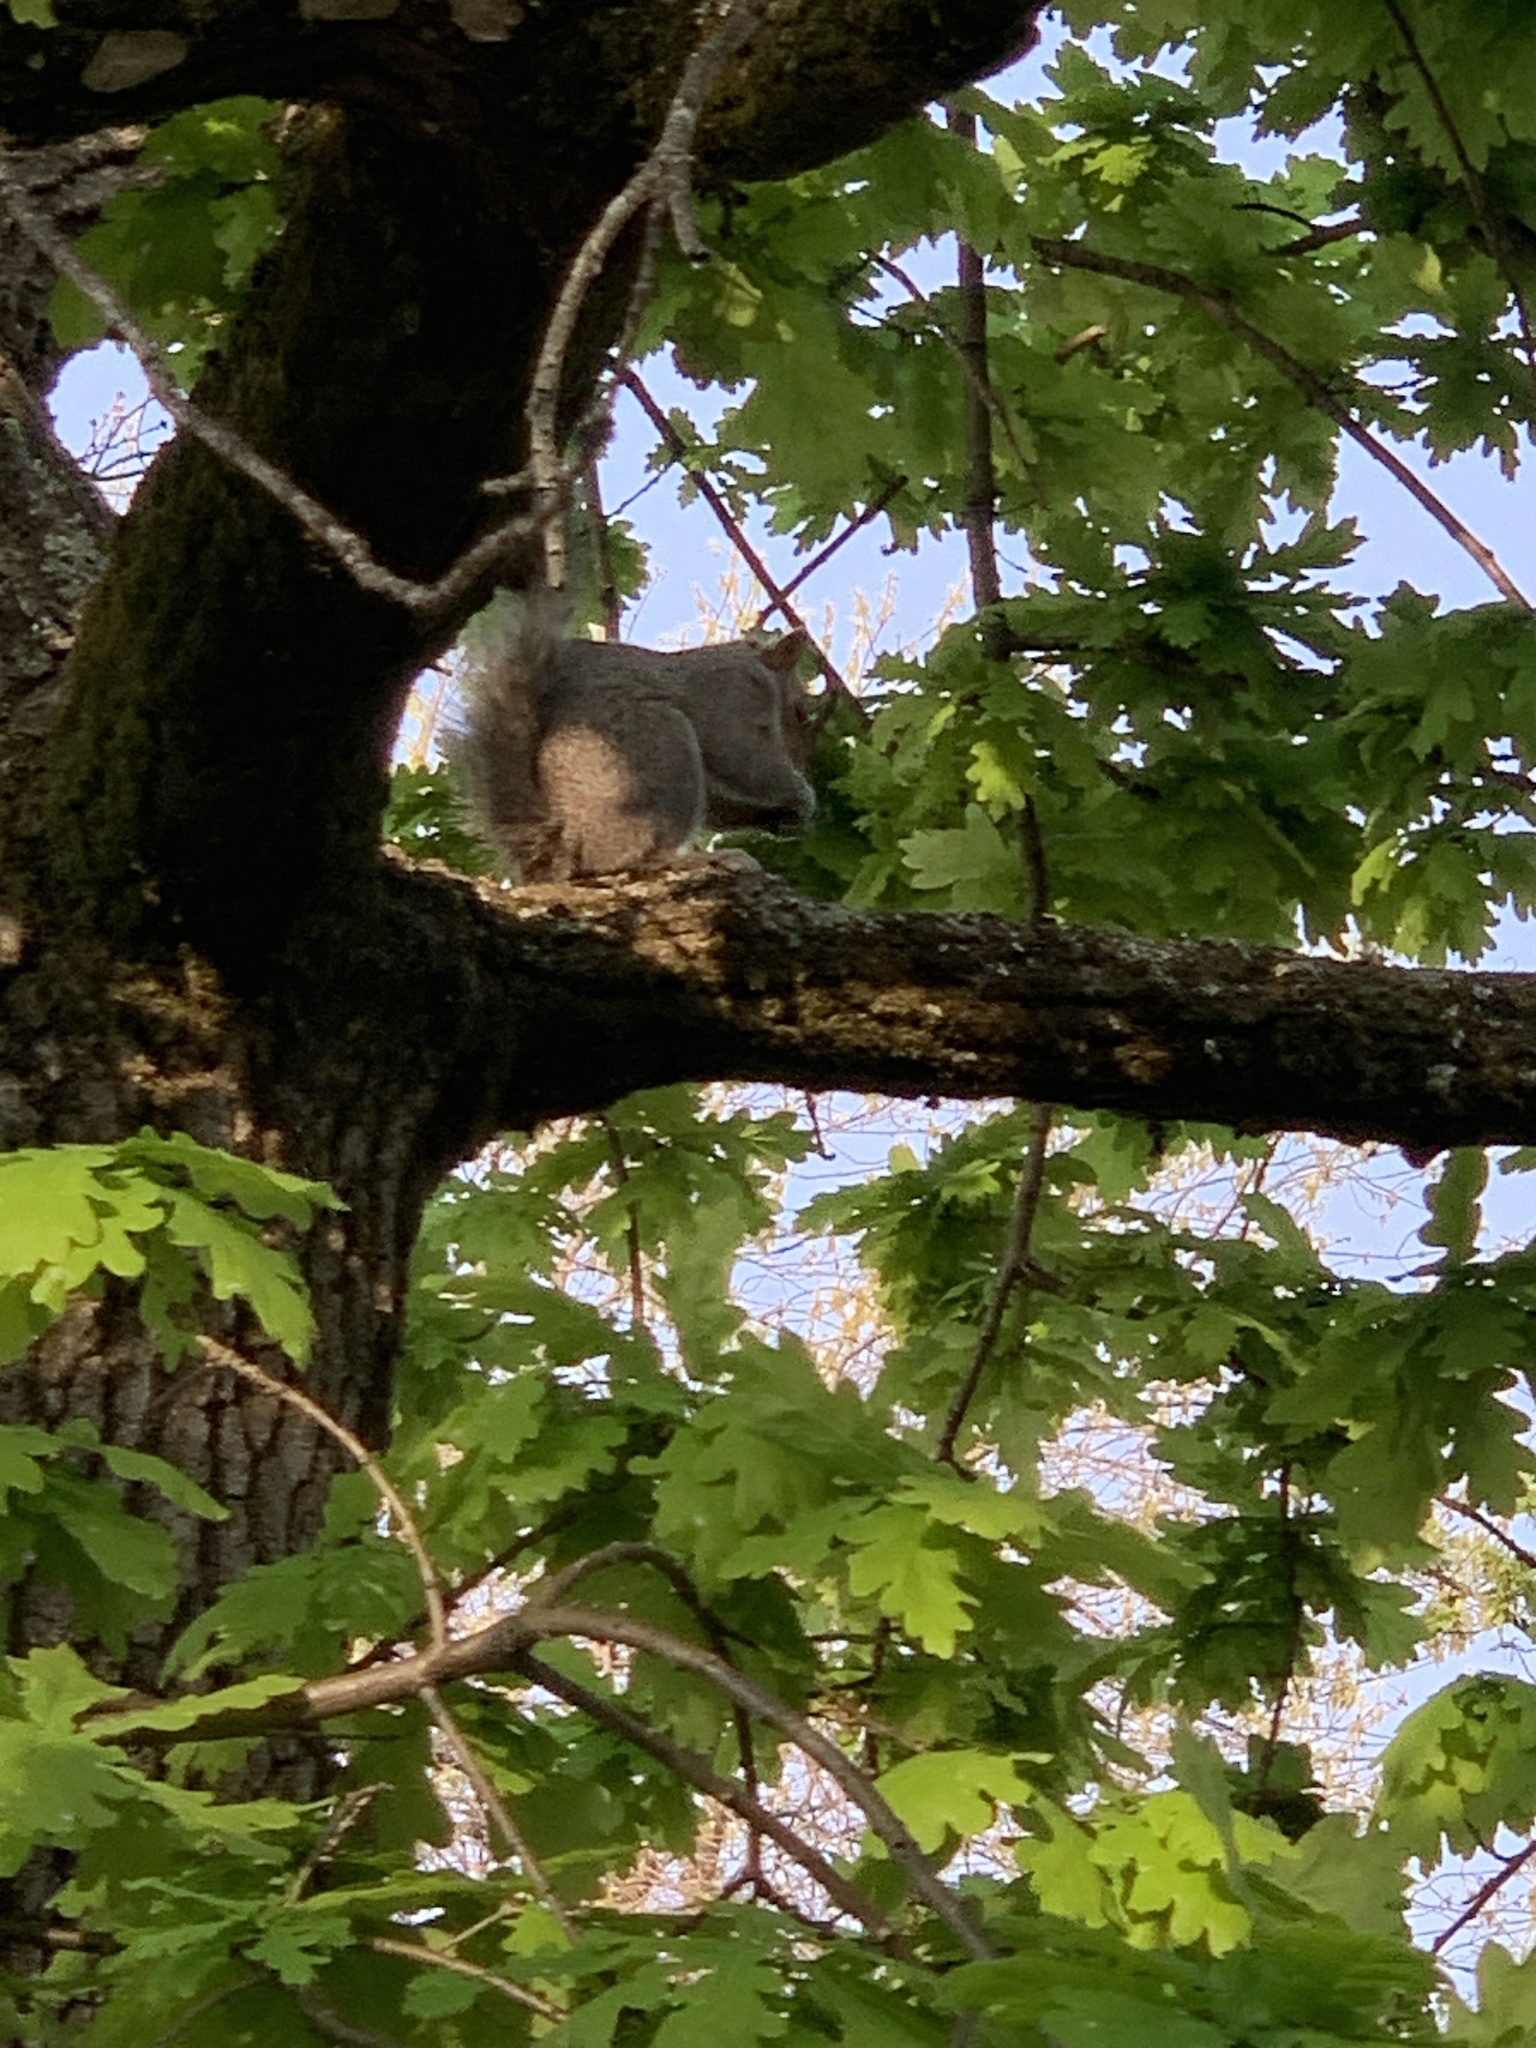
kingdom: Animalia
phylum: Chordata
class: Mammalia
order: Rodentia
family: Sciuridae
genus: Sciurus
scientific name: Sciurus carolinensis
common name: Eastern gray squirrel
